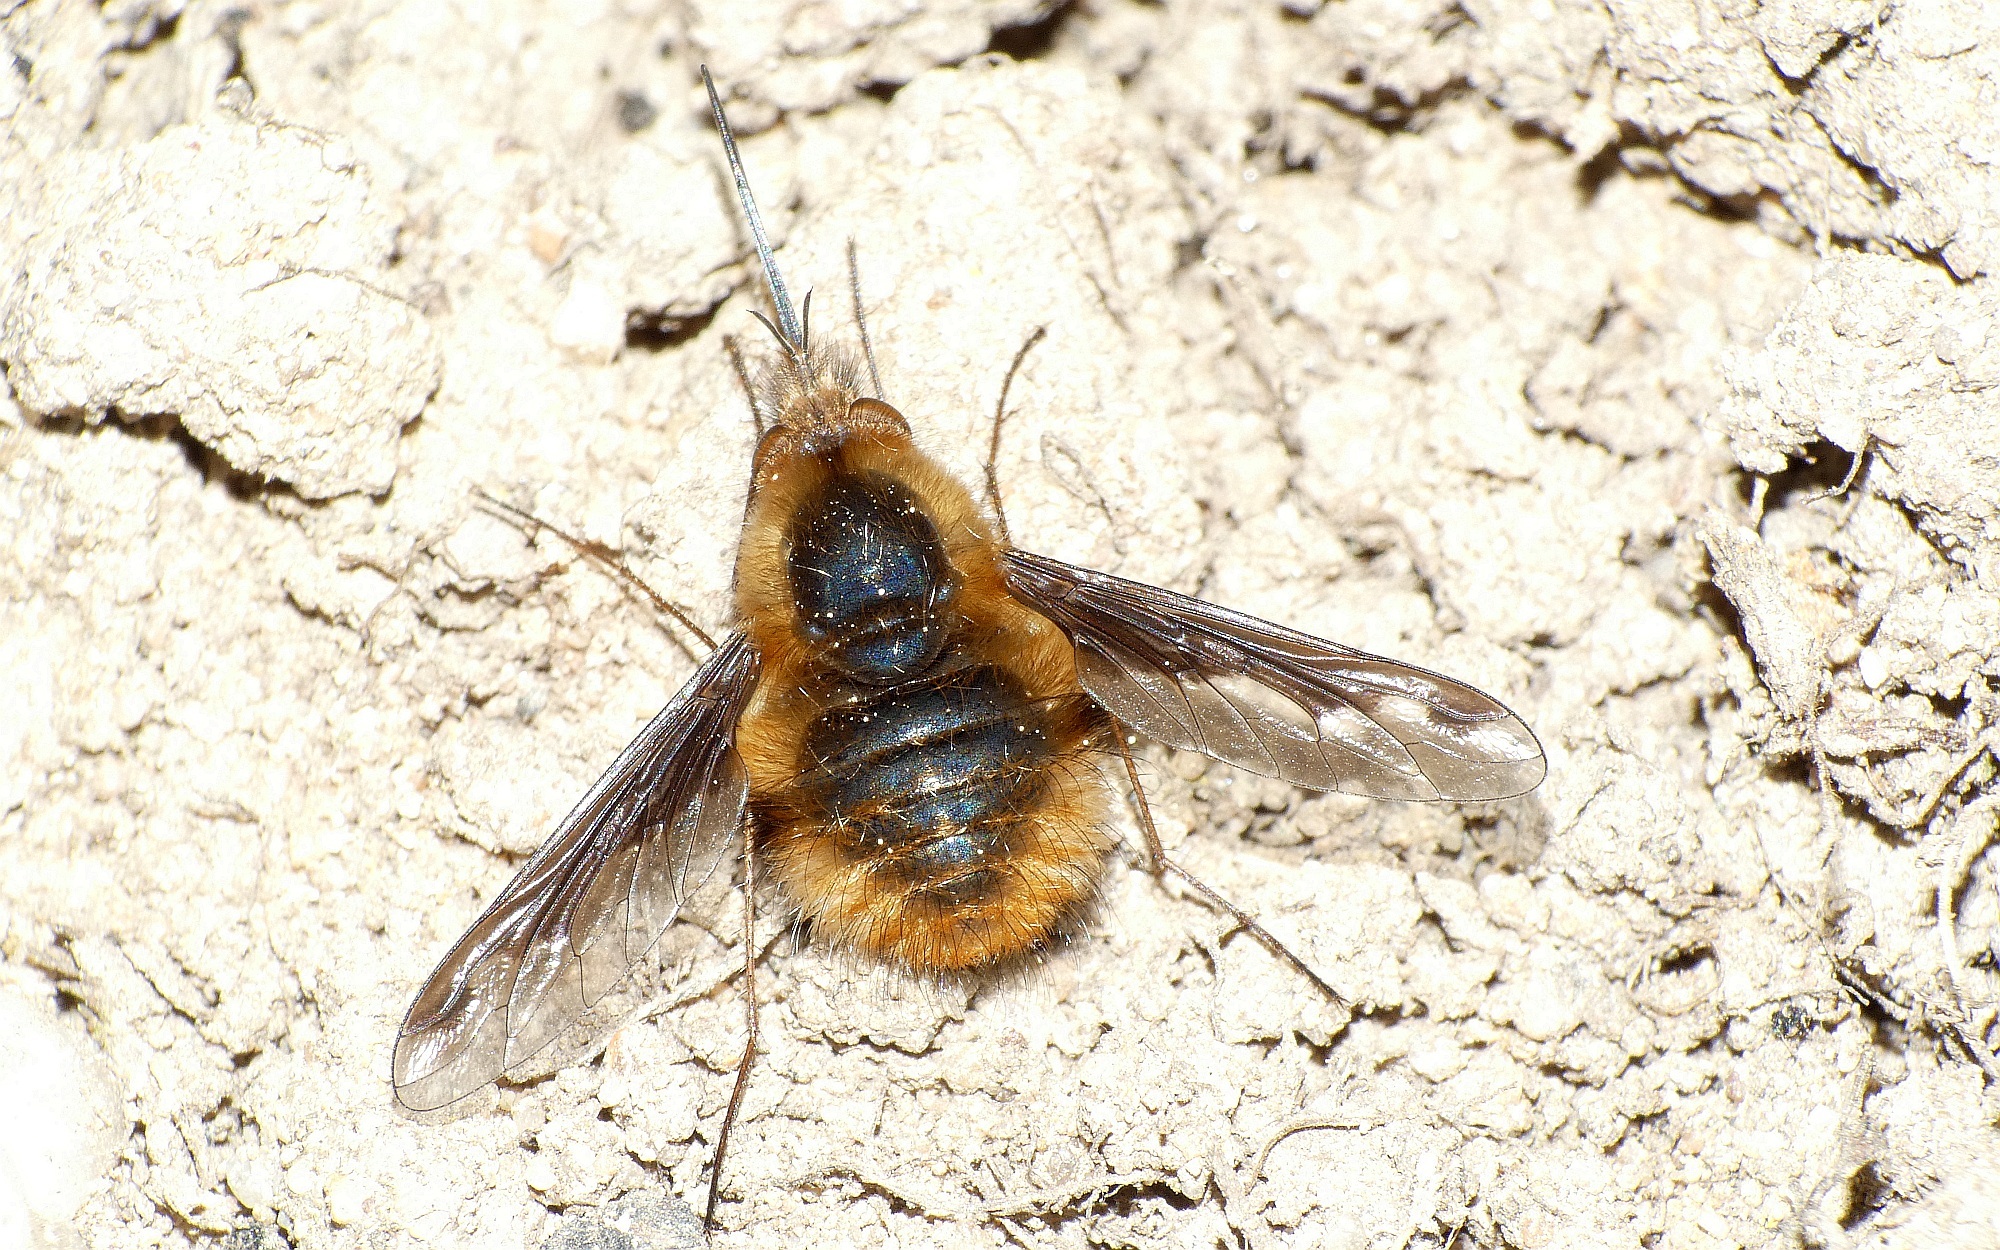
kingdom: Animalia
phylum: Arthropoda
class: Insecta
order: Diptera
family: Bombyliidae
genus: Bombylius
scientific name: Bombylius major
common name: Bee fly
